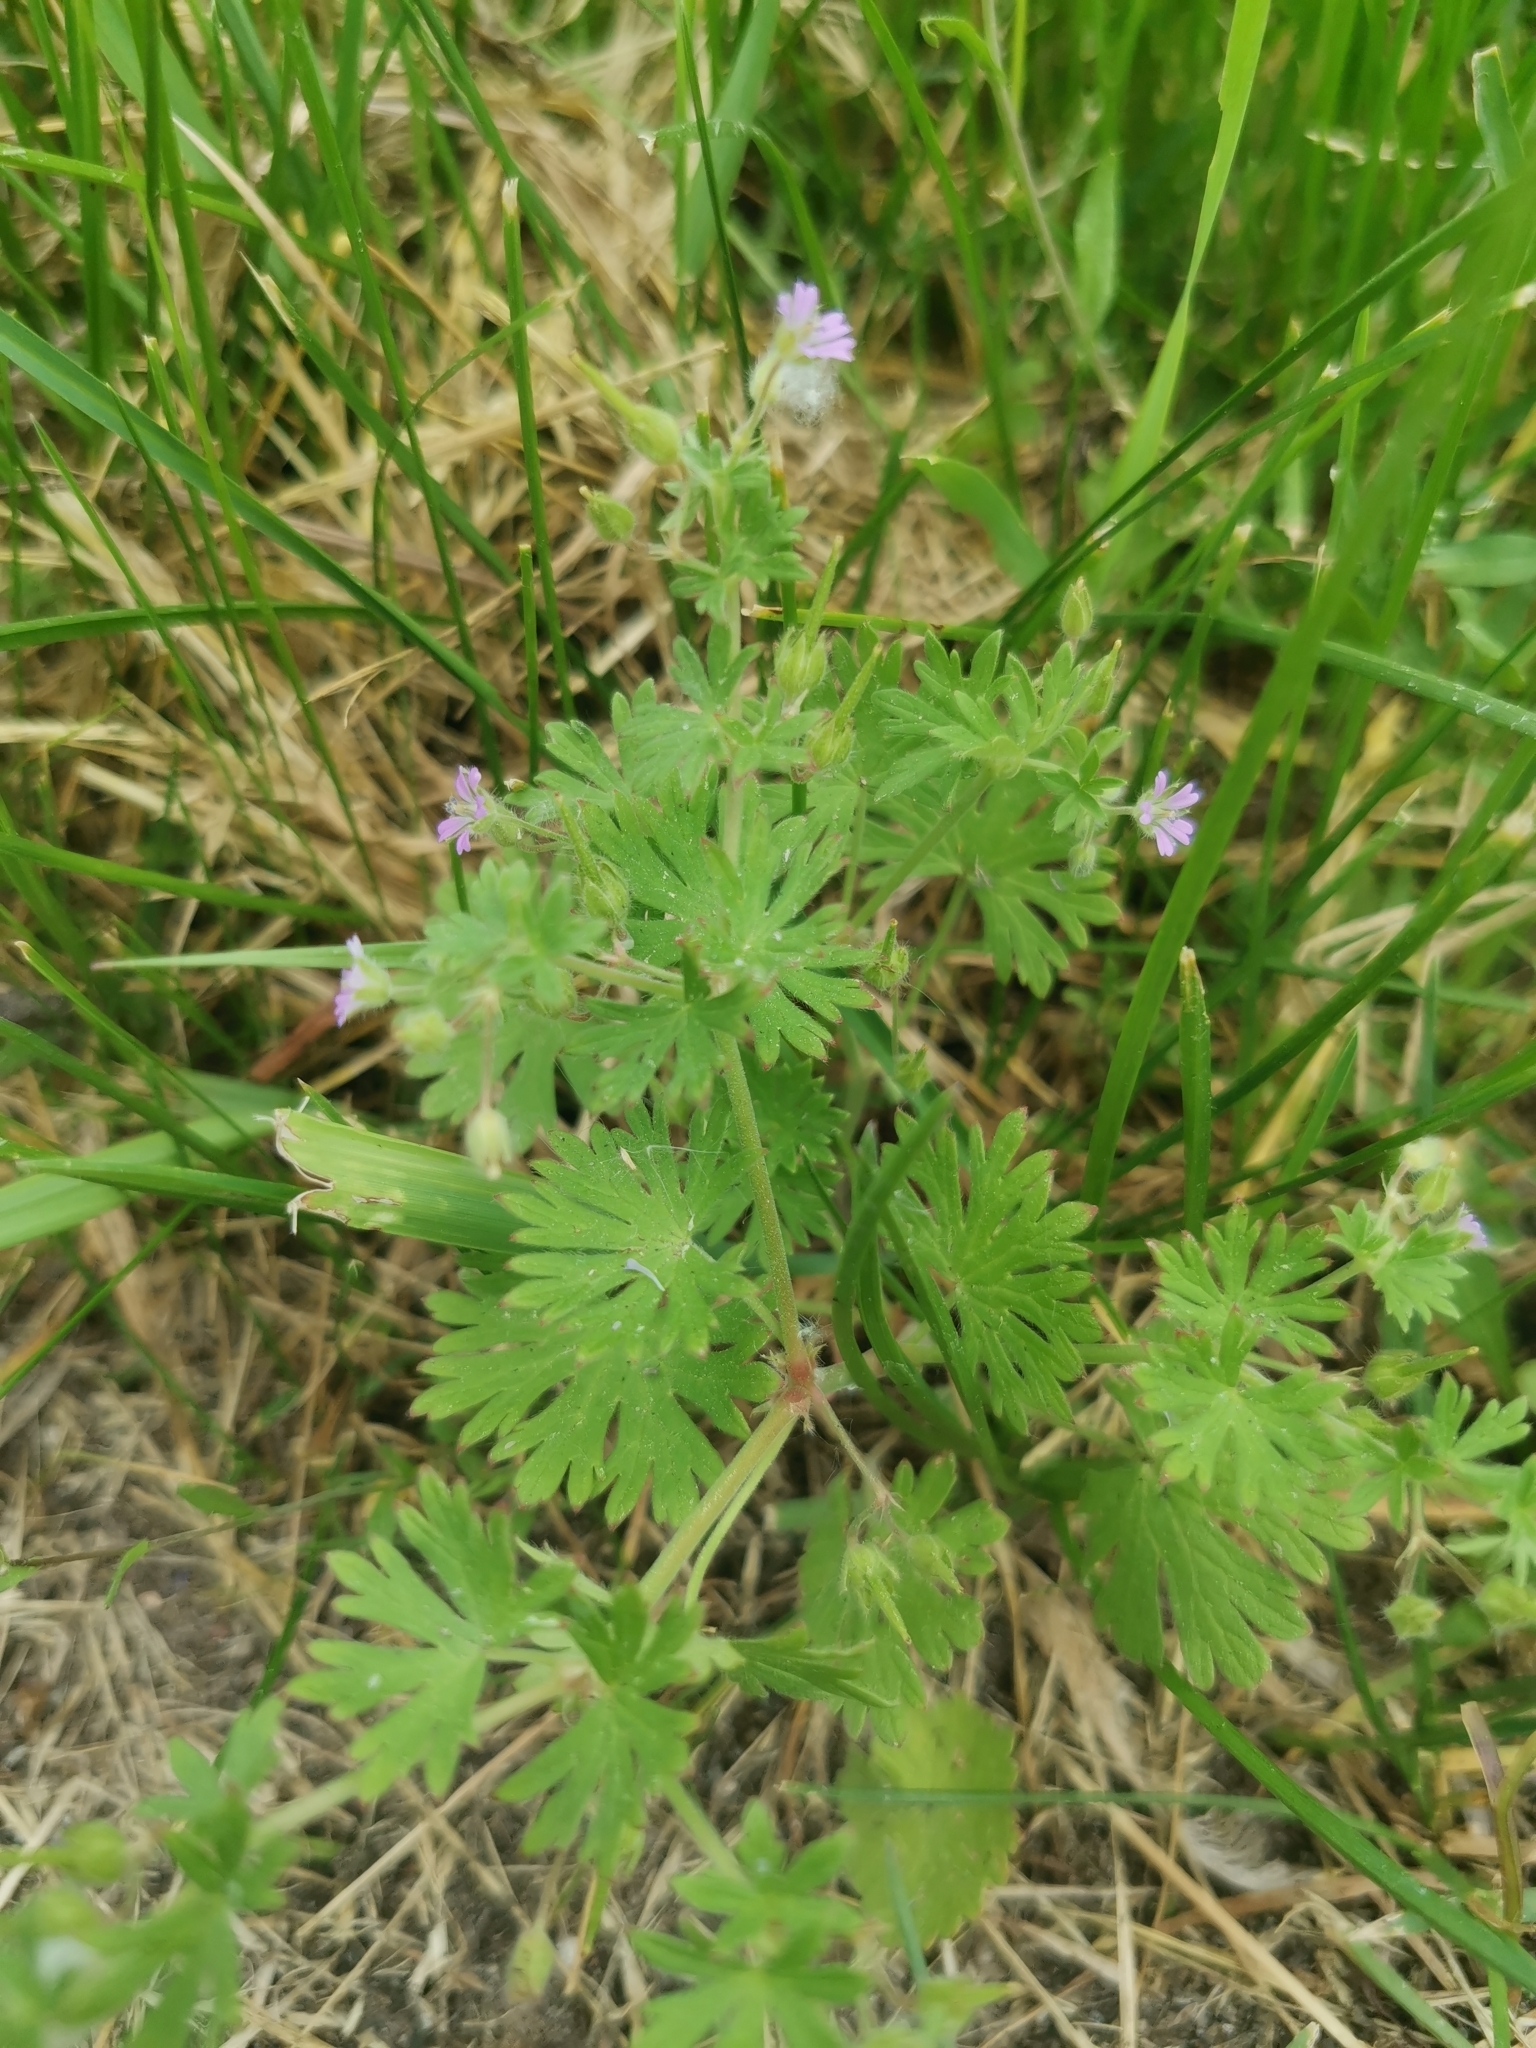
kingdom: Plantae
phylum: Tracheophyta
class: Magnoliopsida
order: Geraniales
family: Geraniaceae
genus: Geranium
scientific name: Geranium pusillum
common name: Small geranium
